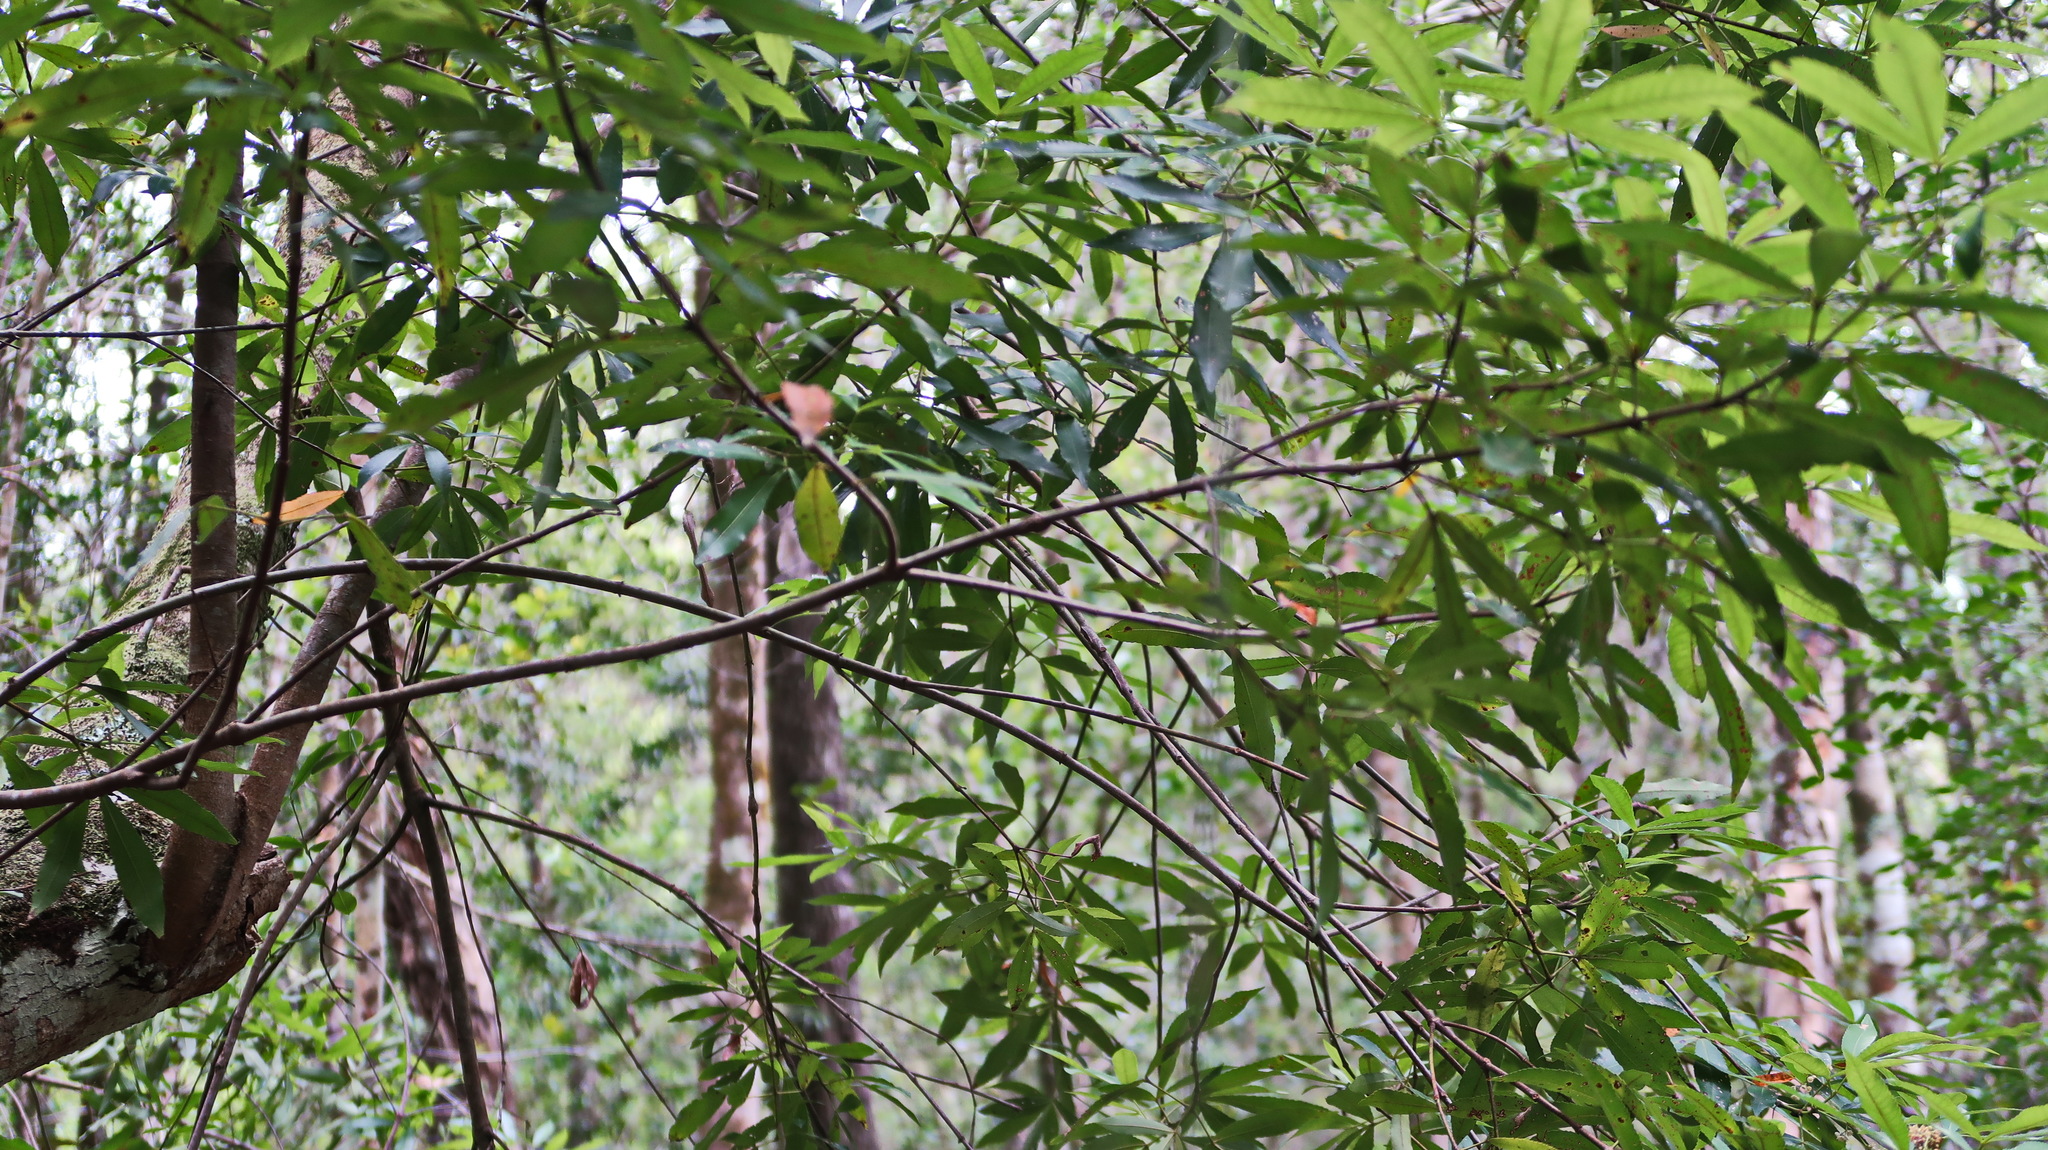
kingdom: Plantae
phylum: Tracheophyta
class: Magnoliopsida
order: Oxalidales
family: Cunoniaceae
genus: Platylophus
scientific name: Platylophus trifoliatus
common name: White alder
